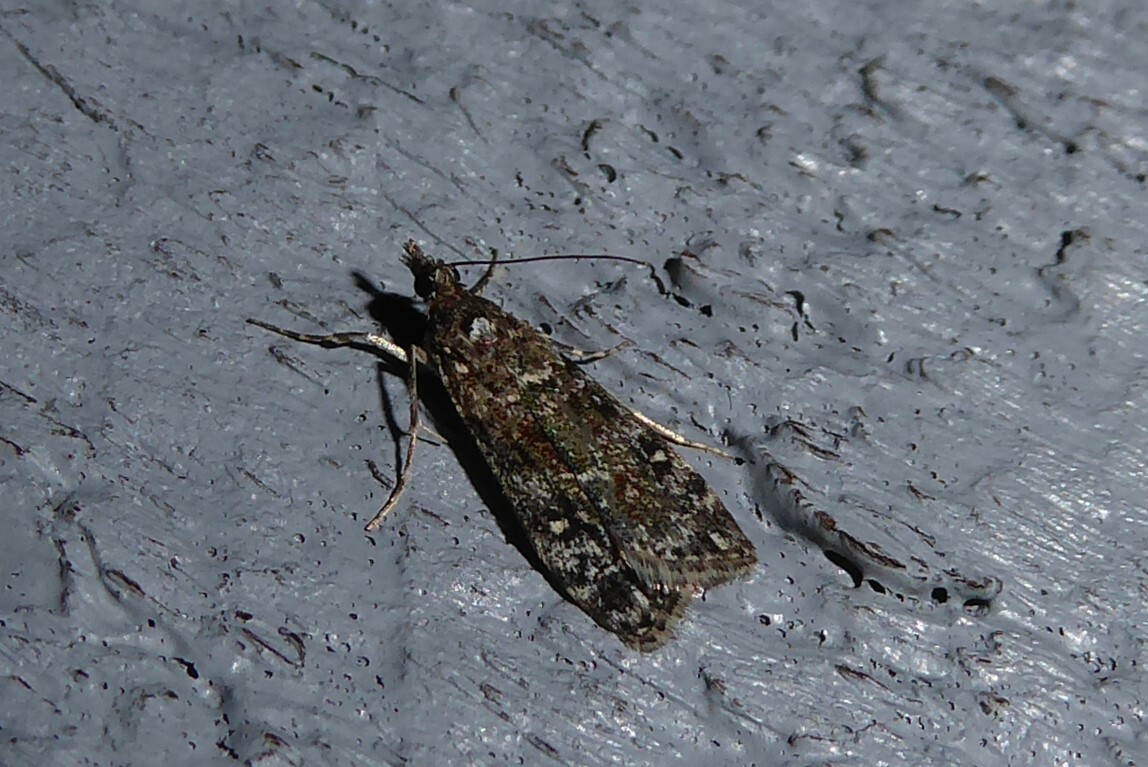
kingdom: Animalia
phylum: Arthropoda
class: Insecta
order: Lepidoptera
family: Crambidae
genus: Eudonia
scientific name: Eudonia philerga
